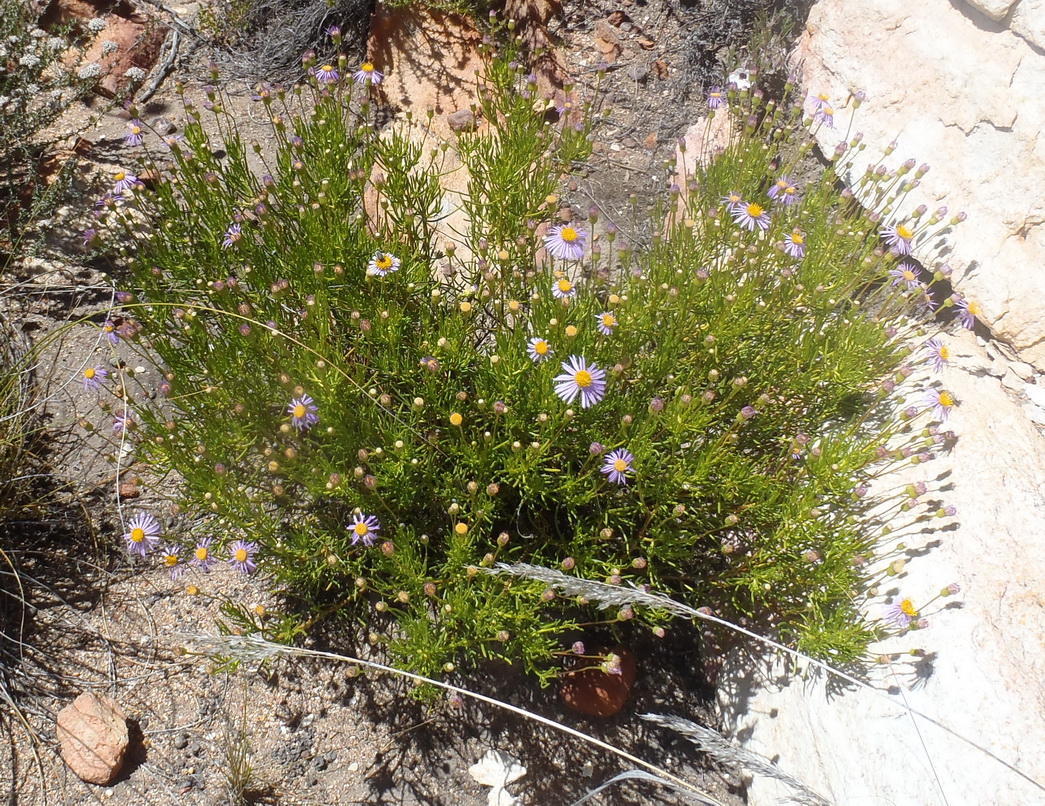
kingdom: Plantae
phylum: Tracheophyta
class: Magnoliopsida
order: Asterales
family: Asteraceae
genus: Felicia
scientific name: Felicia filifolia
